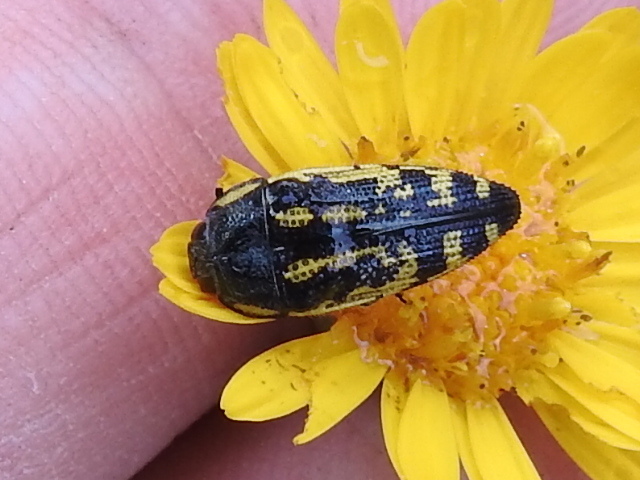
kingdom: Animalia
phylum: Arthropoda
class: Insecta
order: Coleoptera
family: Buprestidae
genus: Acmaeodera
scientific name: Acmaeodera amplicollis
